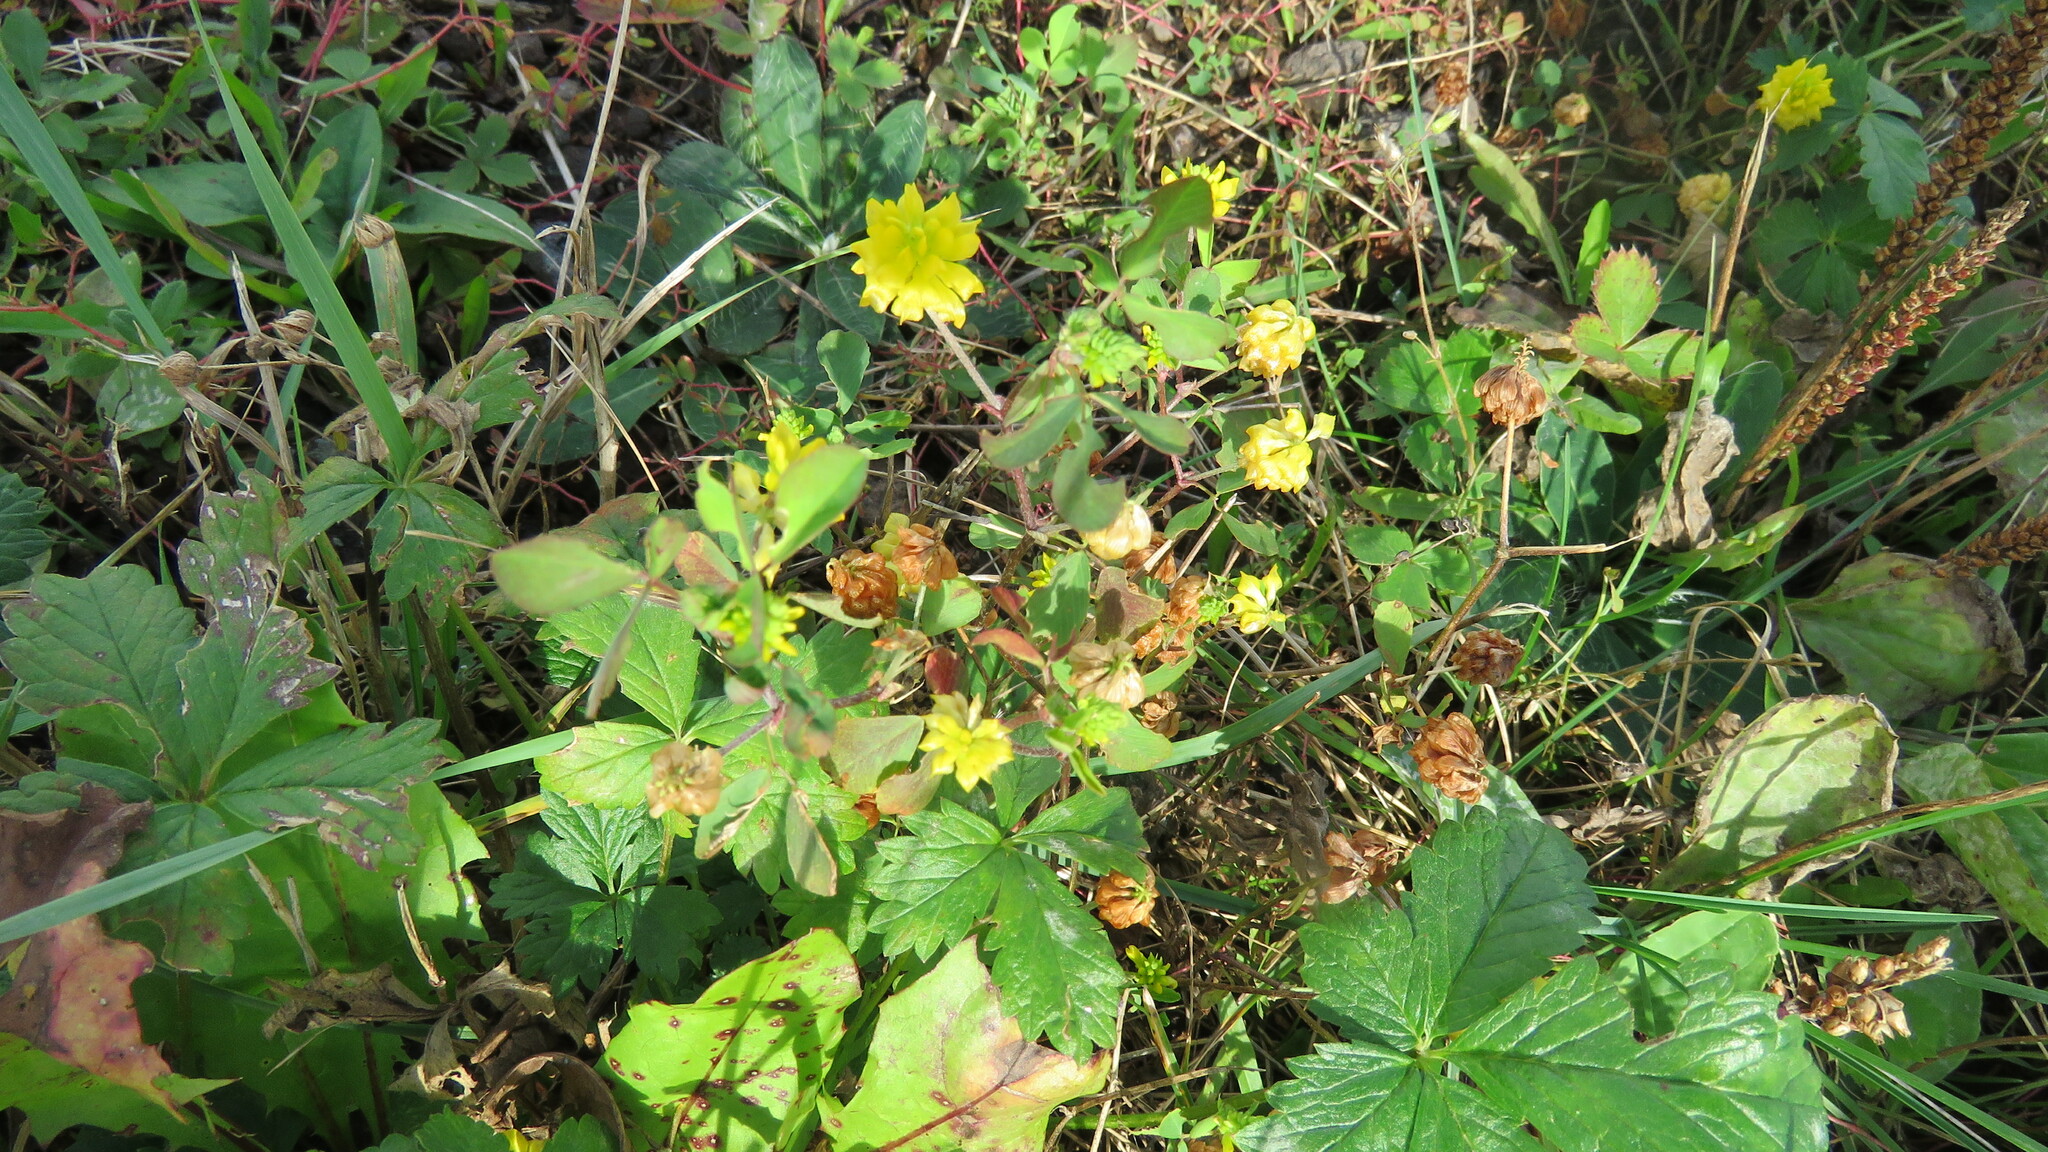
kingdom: Plantae
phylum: Tracheophyta
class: Magnoliopsida
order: Fabales
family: Fabaceae
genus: Trifolium
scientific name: Trifolium campestre
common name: Field clover
